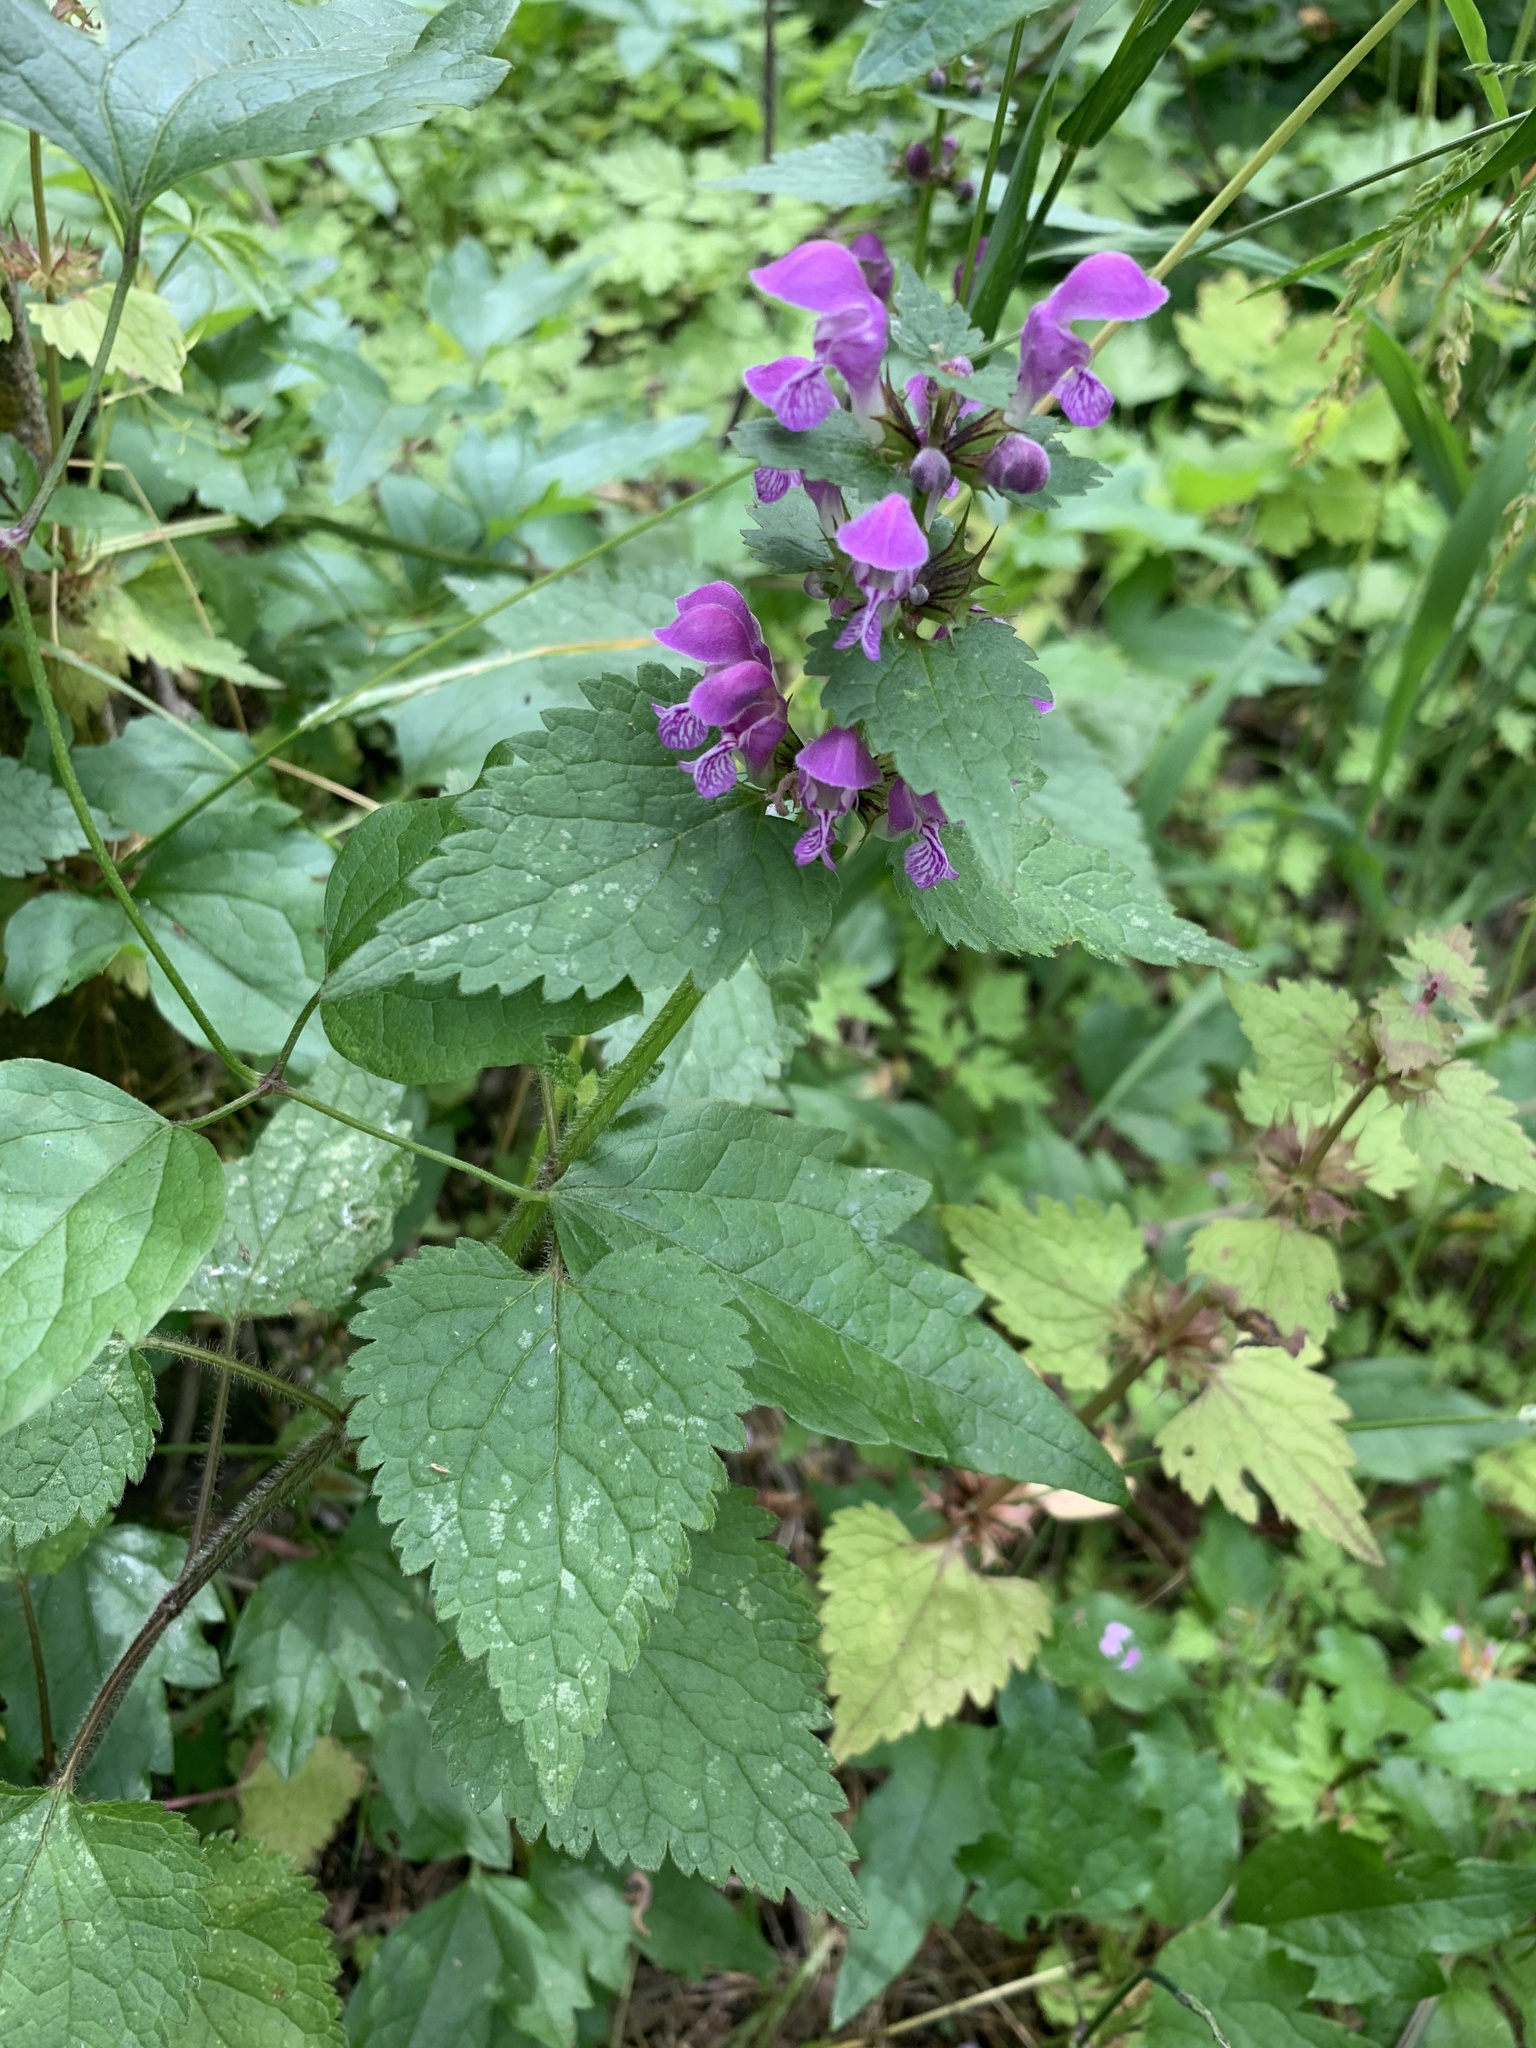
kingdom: Plantae
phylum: Tracheophyta
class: Magnoliopsida
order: Lamiales
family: Lamiaceae
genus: Lamium
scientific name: Lamium maculatum
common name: Spotted dead-nettle
